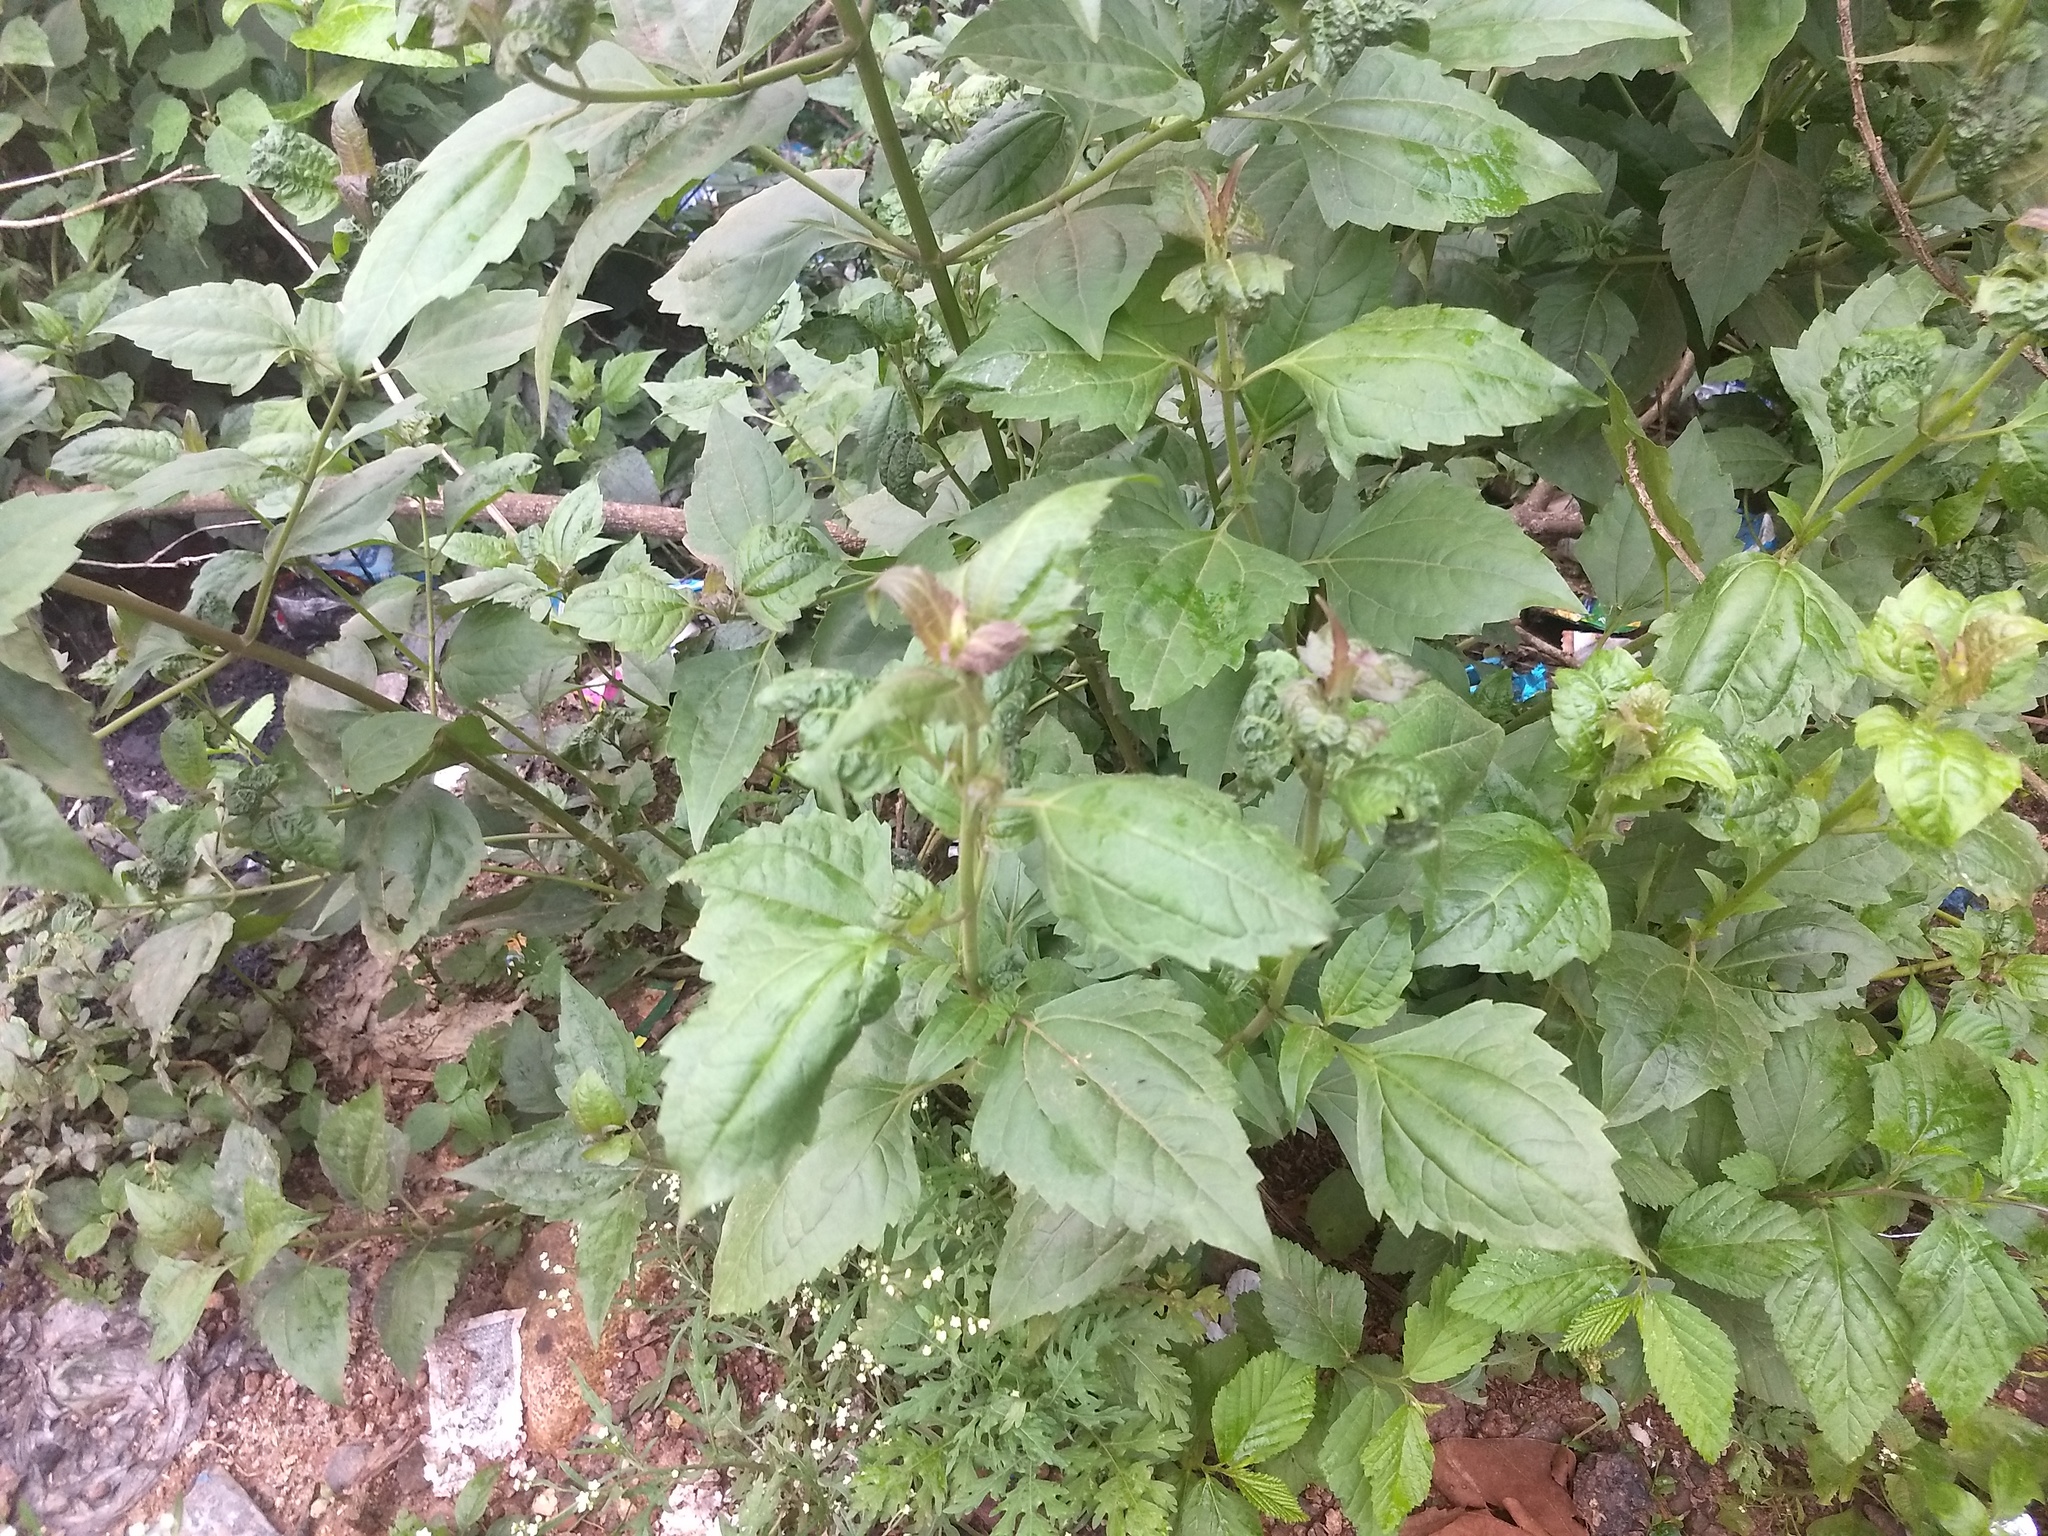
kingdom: Plantae
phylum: Tracheophyta
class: Magnoliopsida
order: Asterales
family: Asteraceae
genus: Chromolaena
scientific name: Chromolaena odorata
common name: Siamweed
